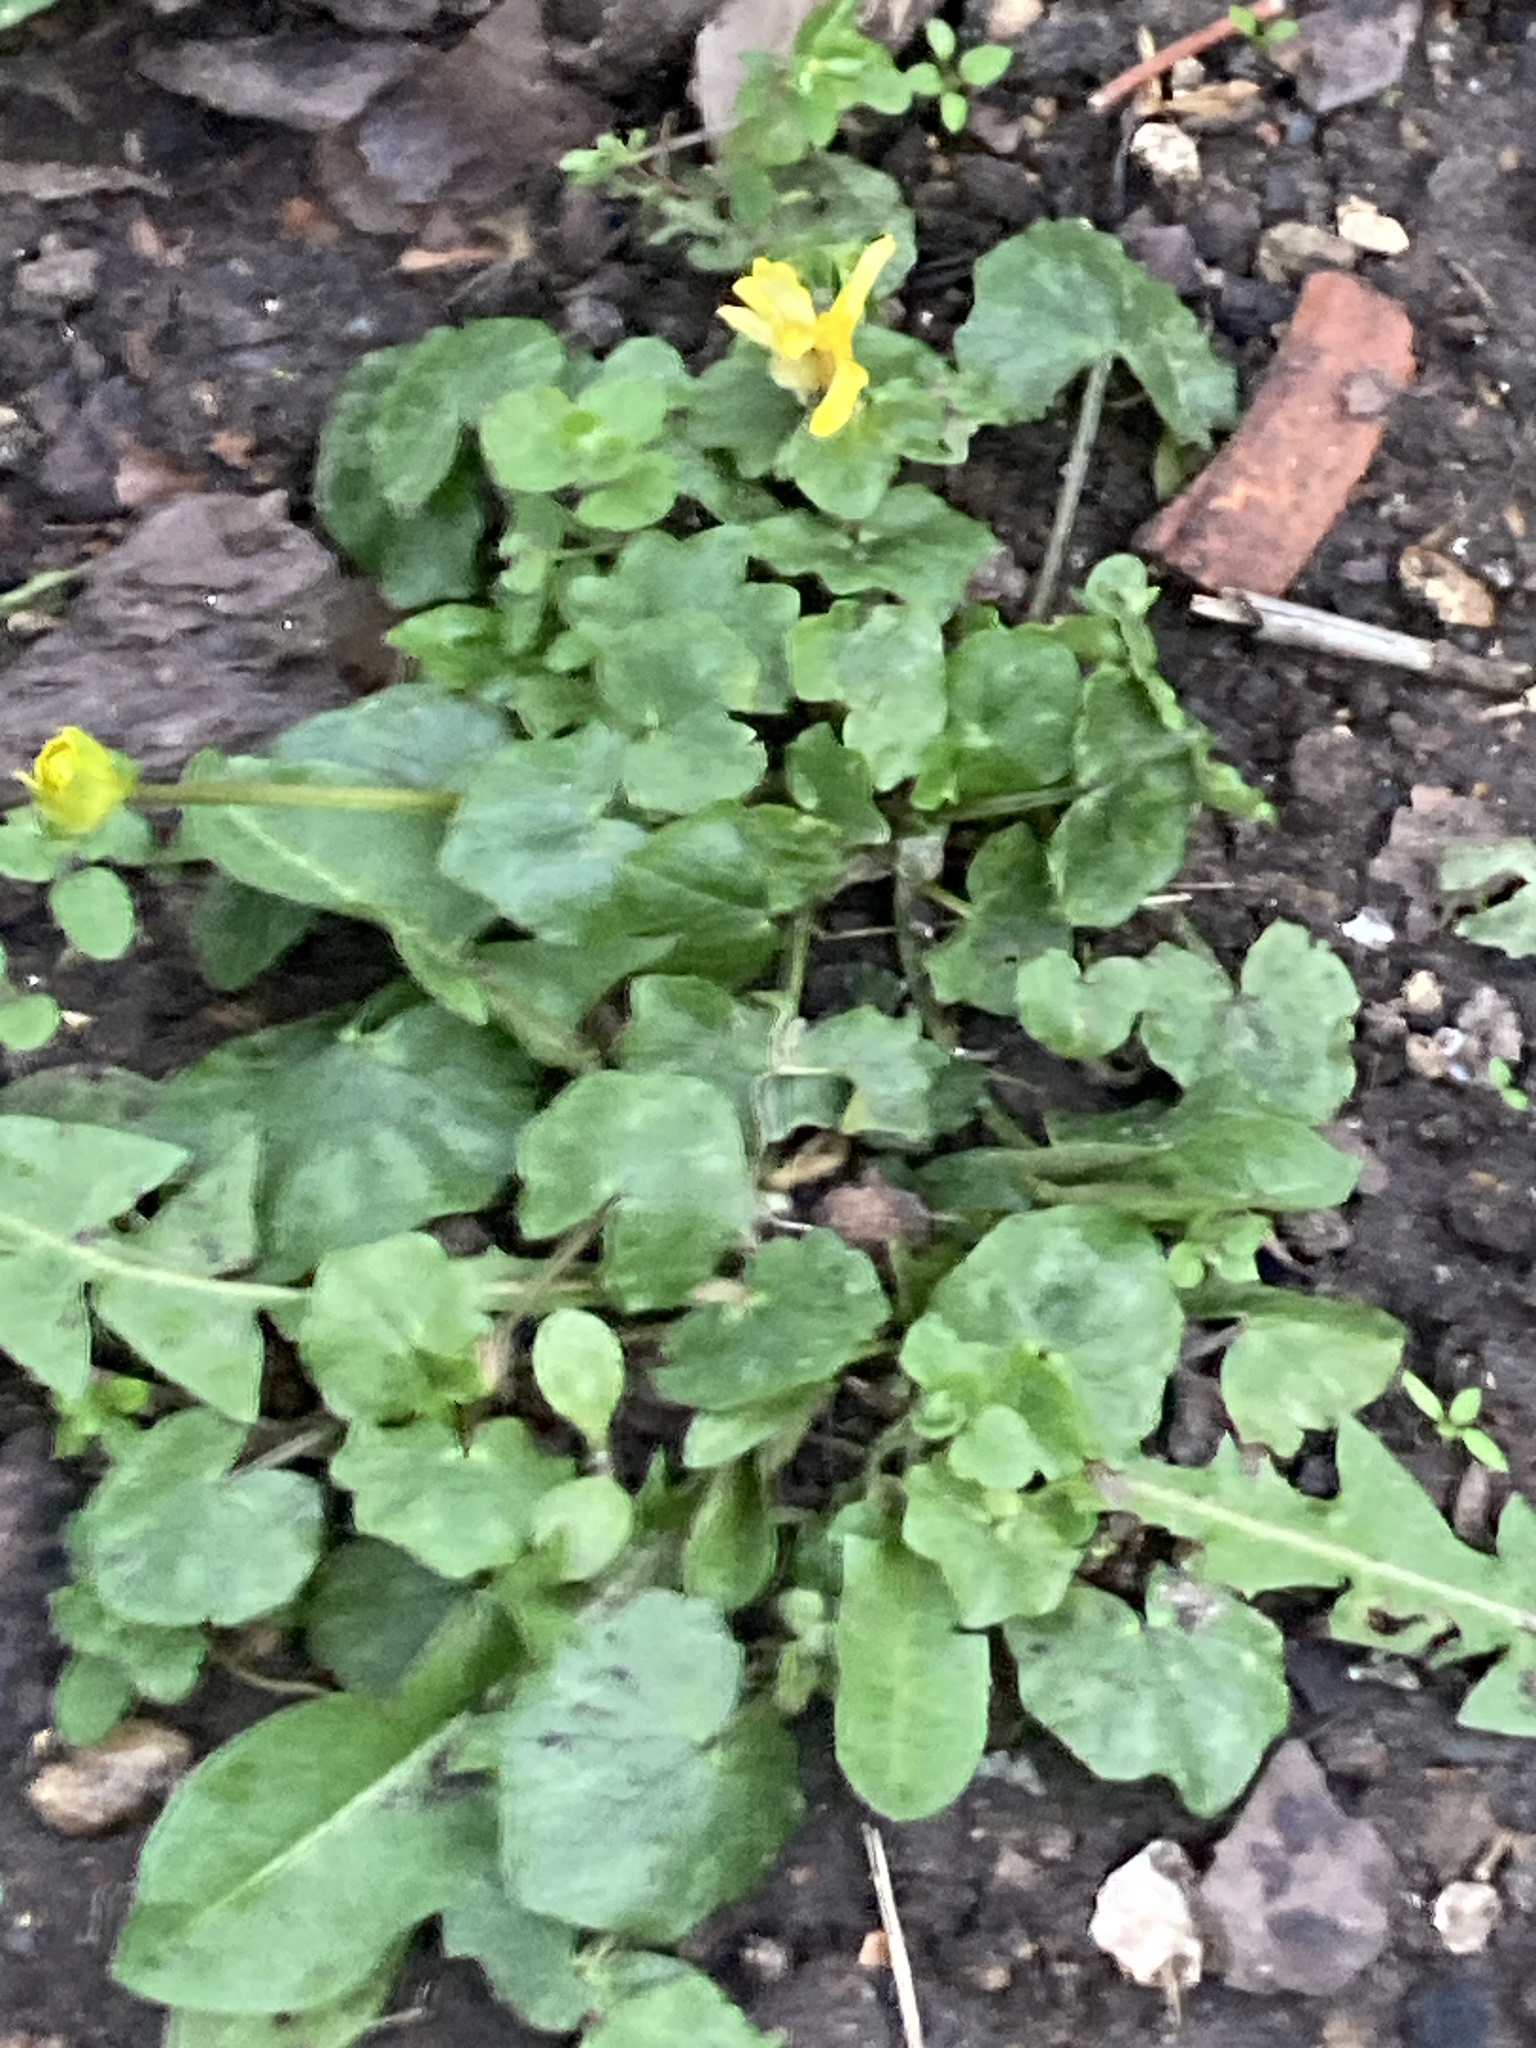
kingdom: Plantae
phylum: Tracheophyta
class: Magnoliopsida
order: Ranunculales
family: Ranunculaceae
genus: Ficaria
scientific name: Ficaria verna
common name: Lesser celandine
